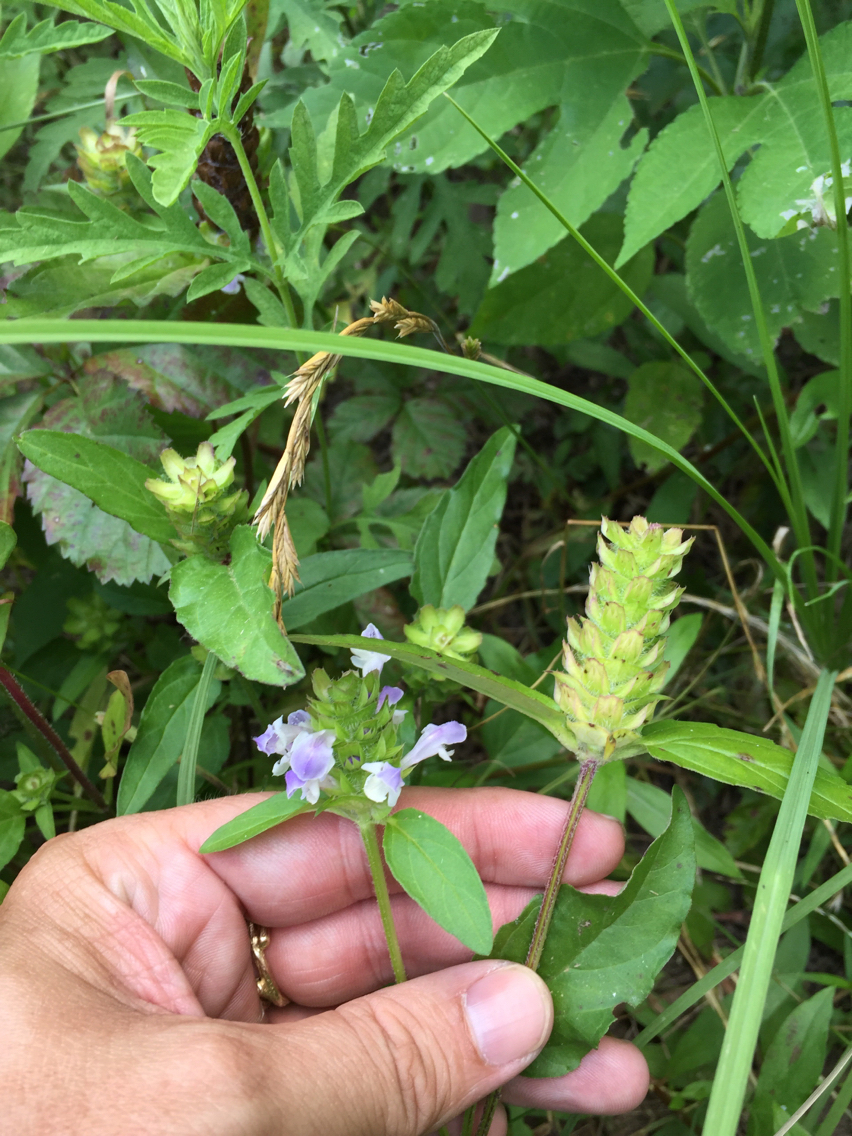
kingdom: Plantae
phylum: Tracheophyta
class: Magnoliopsida
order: Lamiales
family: Lamiaceae
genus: Prunella
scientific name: Prunella vulgaris
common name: Heal-all
